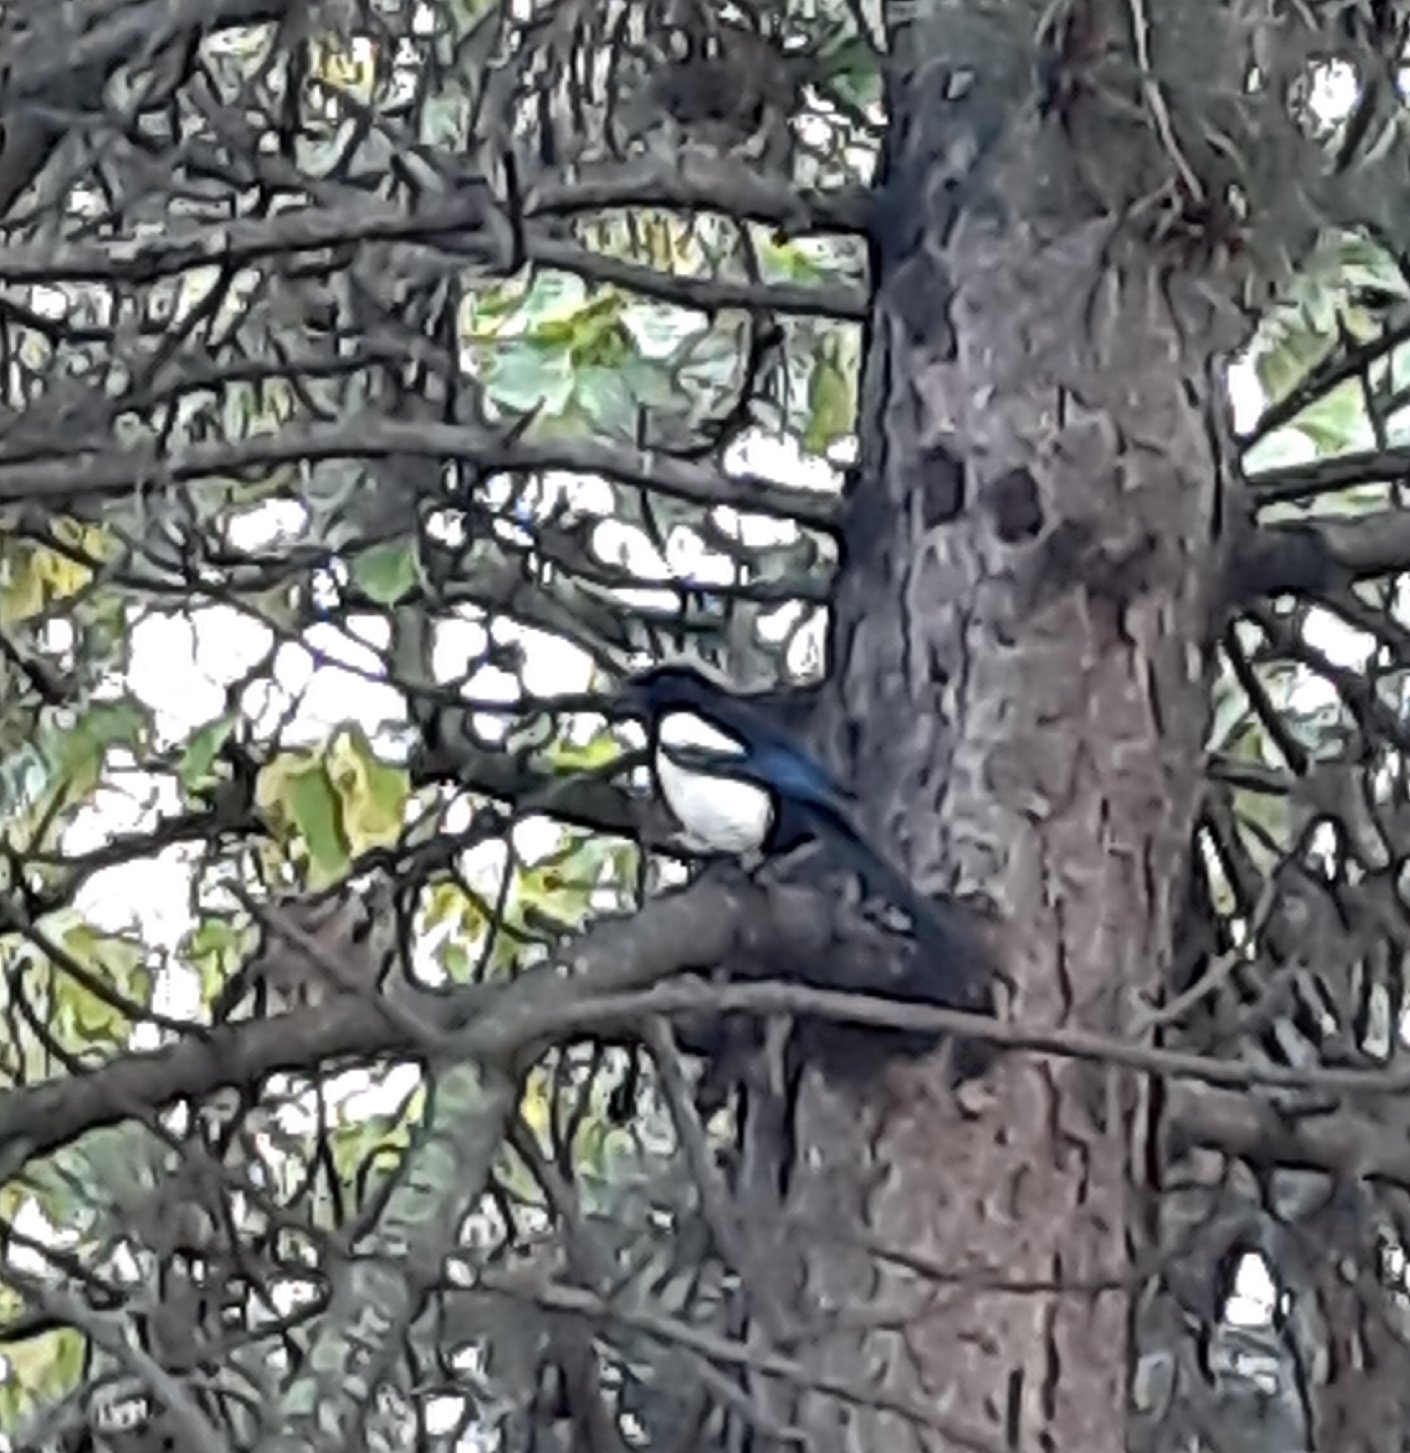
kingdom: Animalia
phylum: Chordata
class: Aves
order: Passeriformes
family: Corvidae
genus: Pica
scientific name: Pica pica
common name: Eurasian magpie
